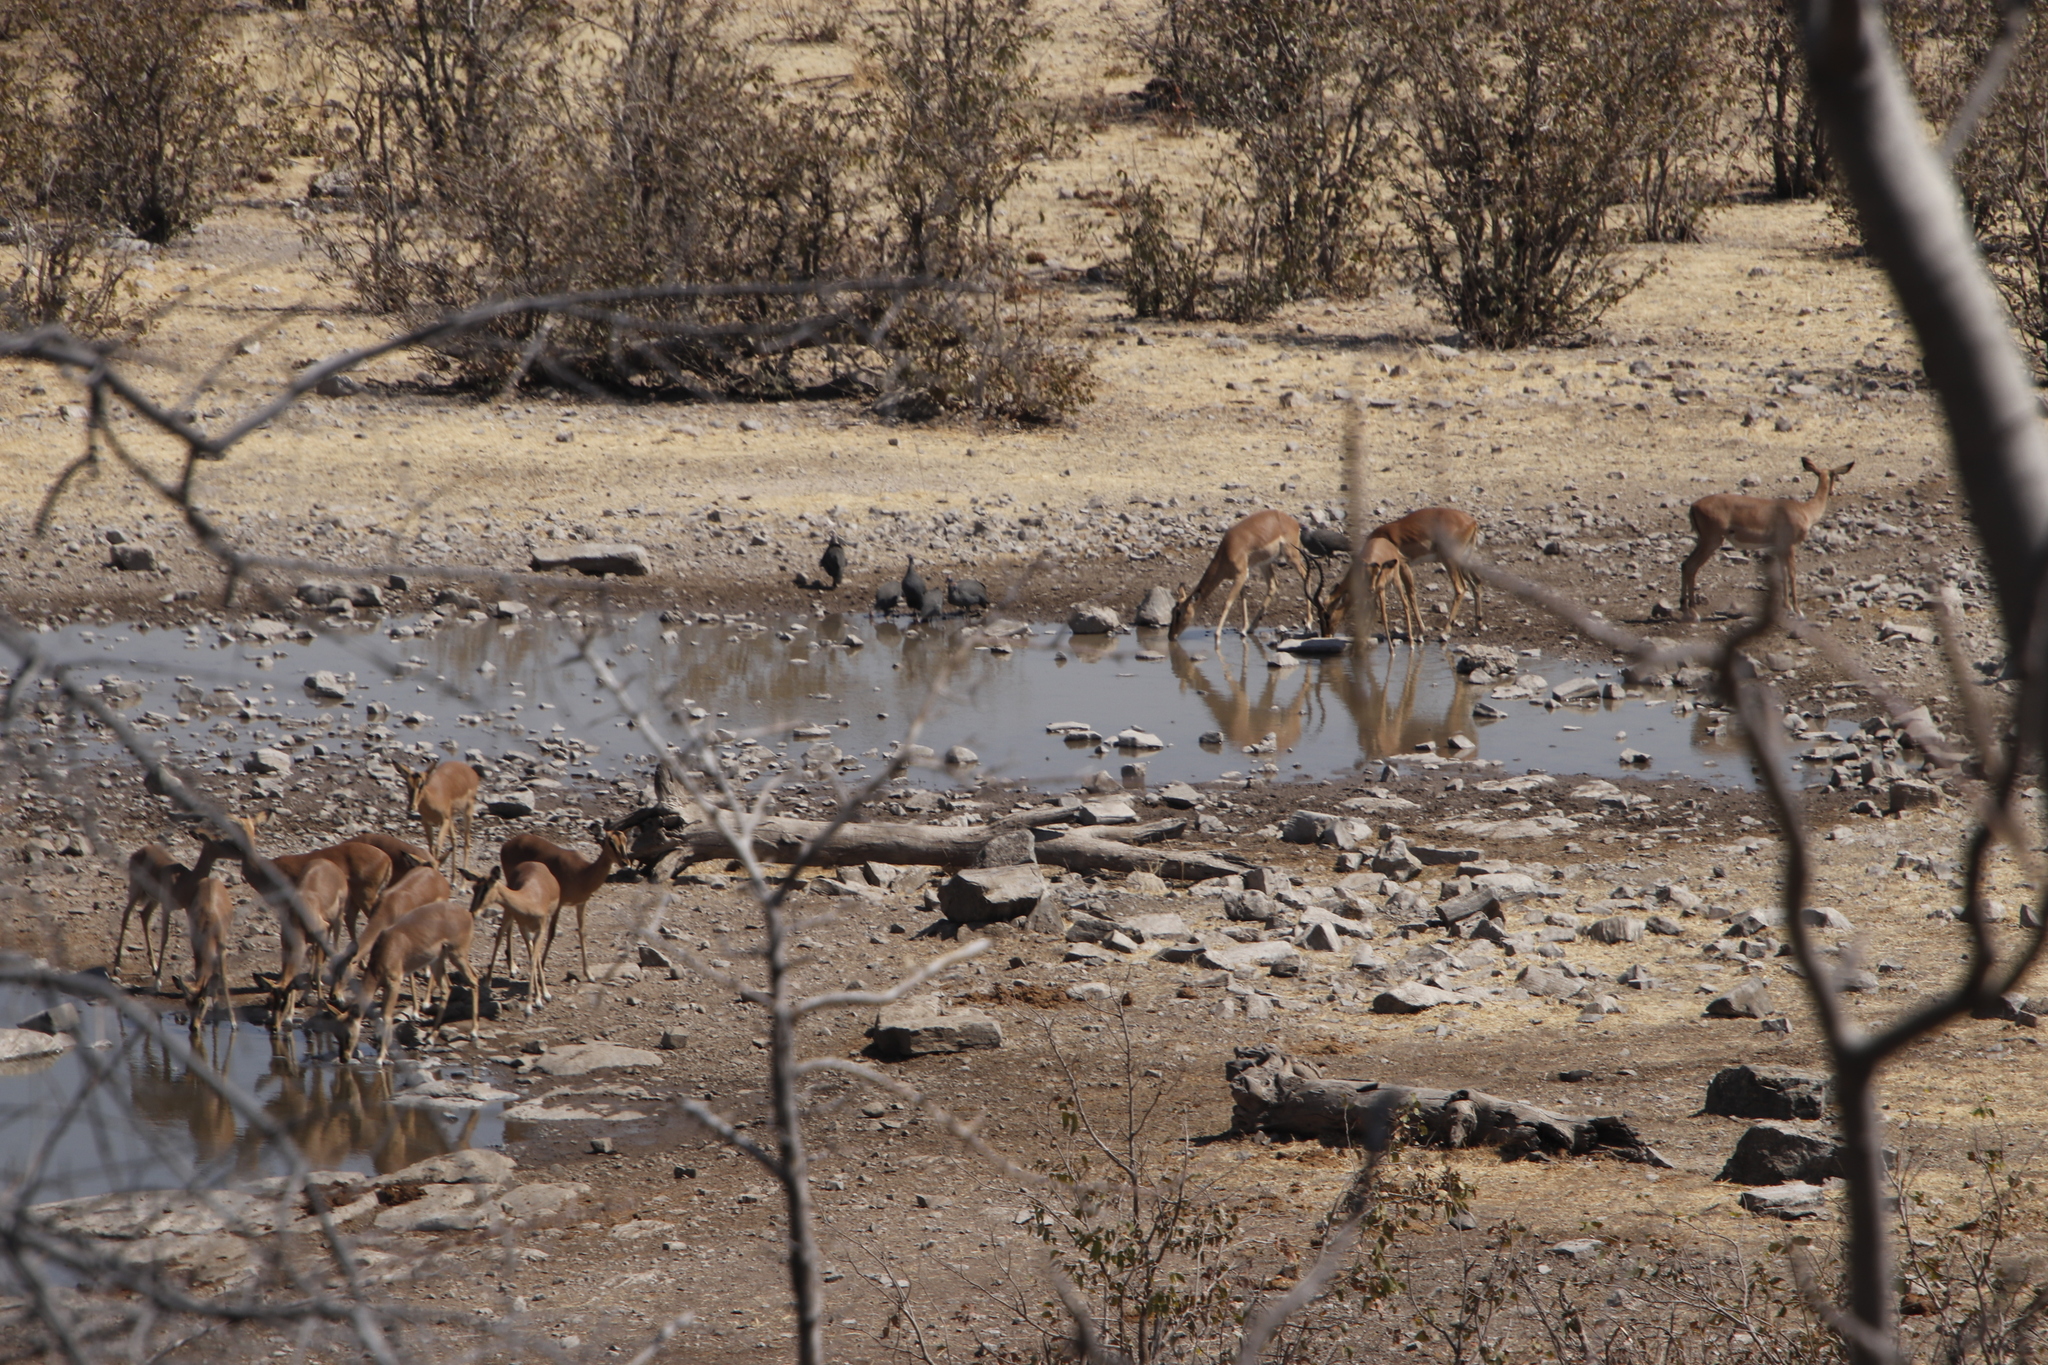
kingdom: Animalia
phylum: Chordata
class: Mammalia
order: Artiodactyla
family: Bovidae
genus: Aepyceros
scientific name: Aepyceros melampus
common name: Impala
